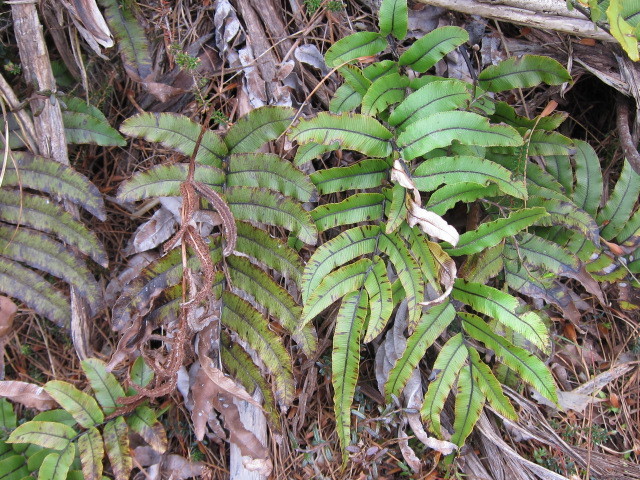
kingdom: Plantae
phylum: Tracheophyta
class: Polypodiopsida
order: Polypodiales
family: Blechnaceae
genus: Parablechnum
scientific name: Parablechnum montanum
